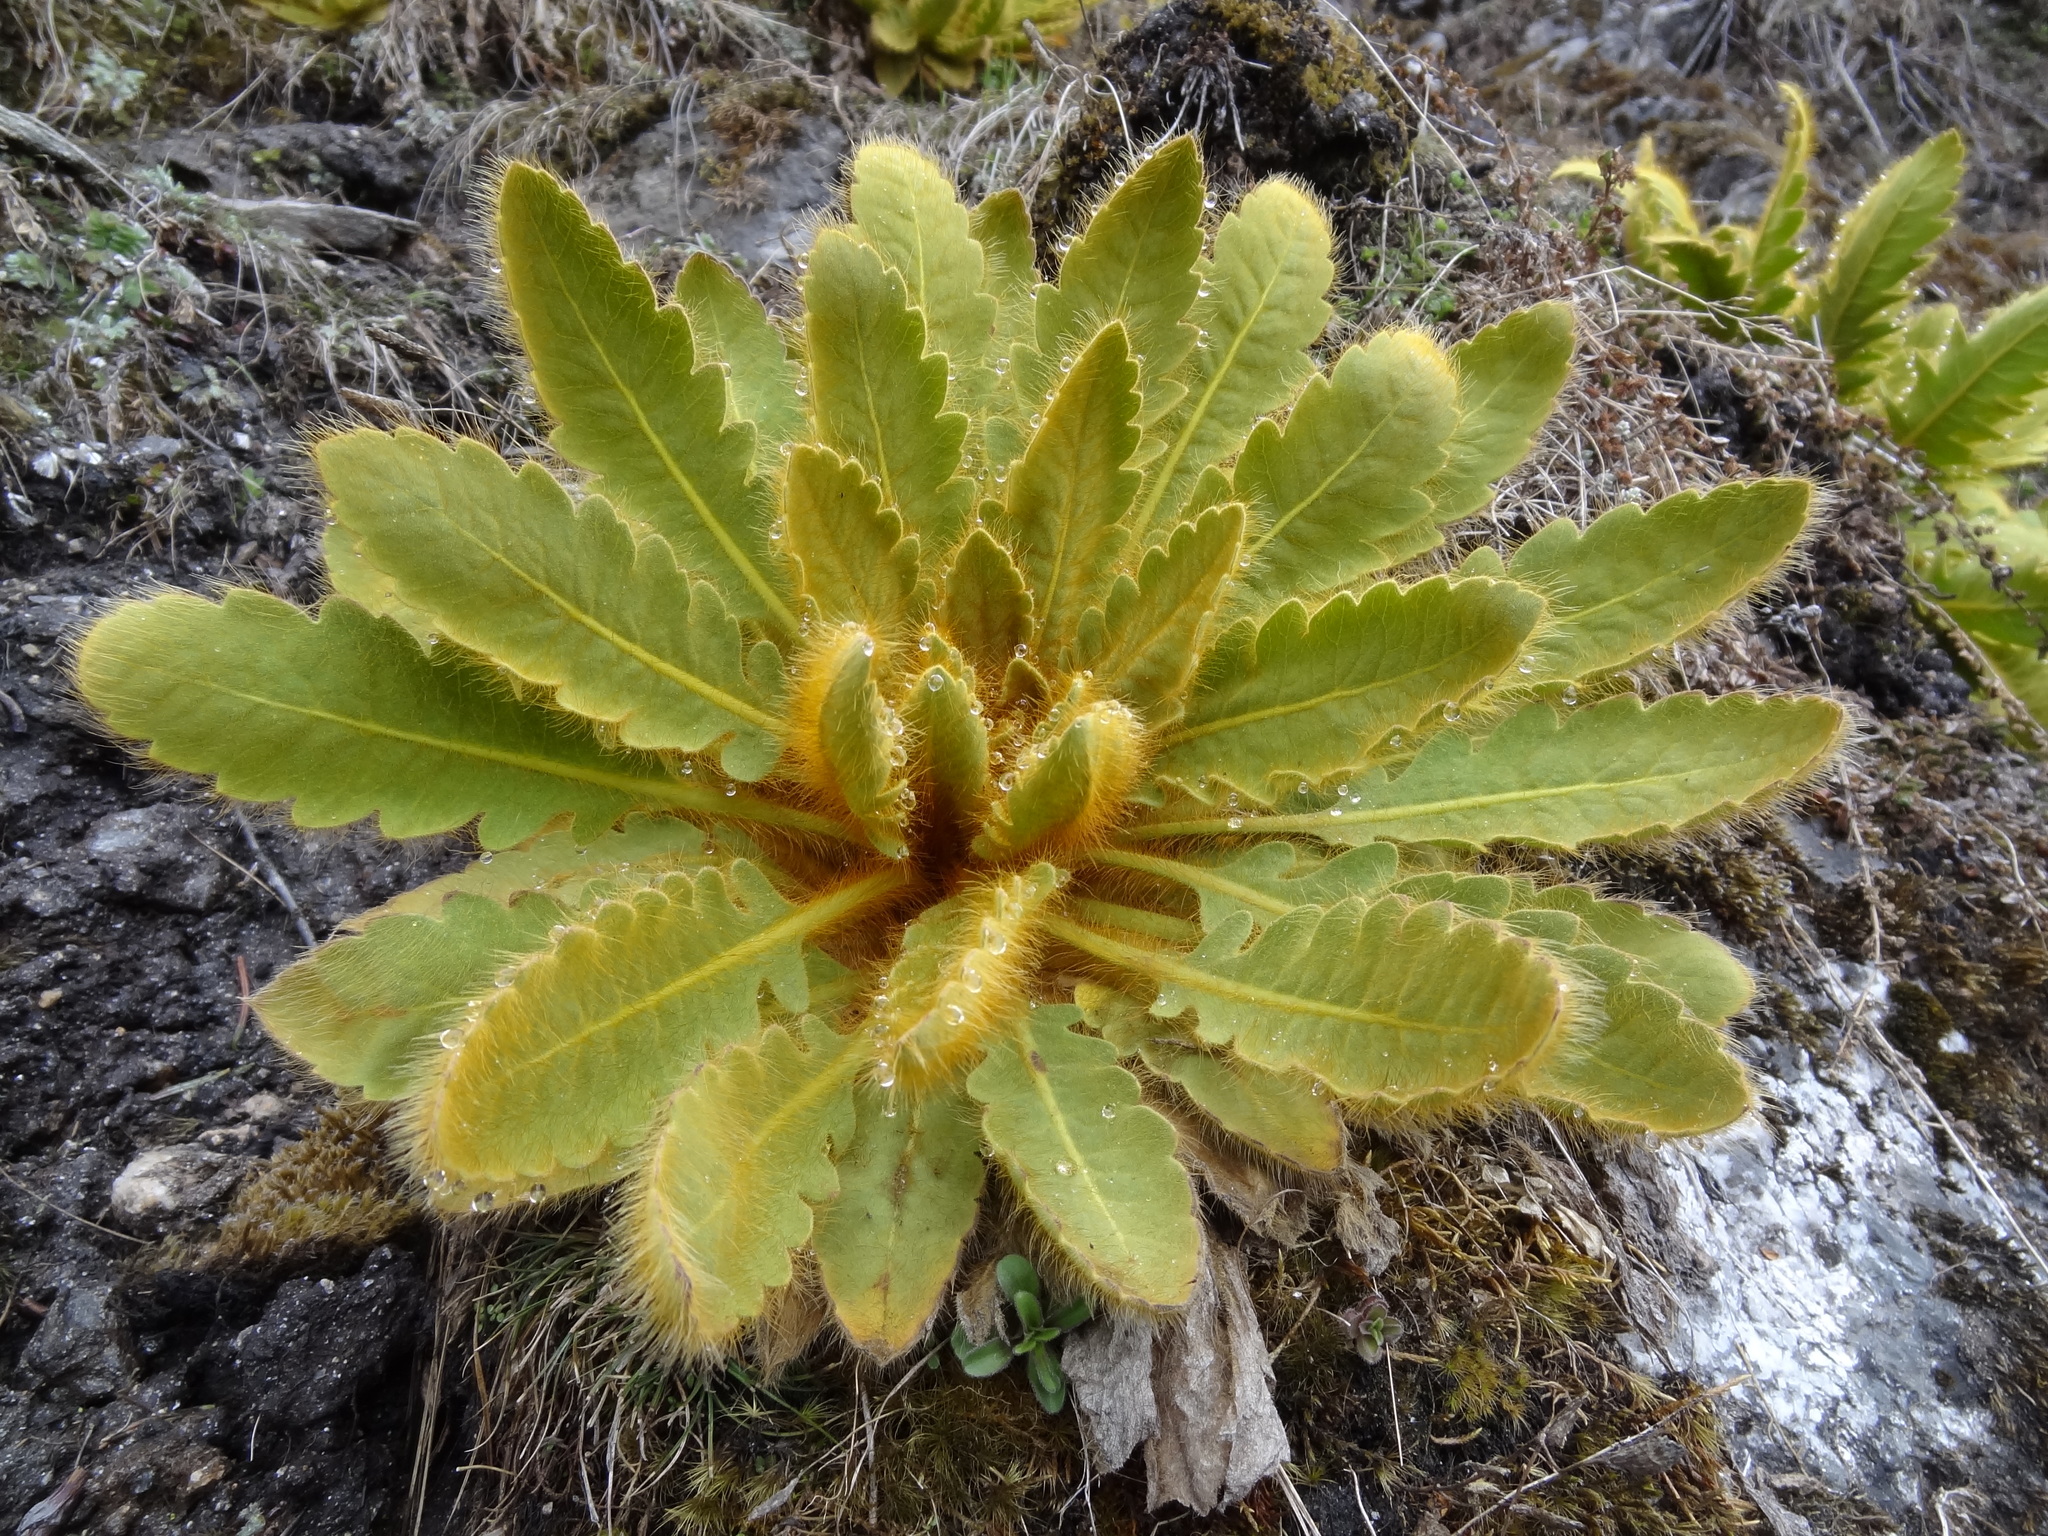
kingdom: Plantae
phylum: Tracheophyta
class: Magnoliopsida
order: Ranunculales
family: Papaveraceae
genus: Meconopsis
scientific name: Meconopsis paniculata
